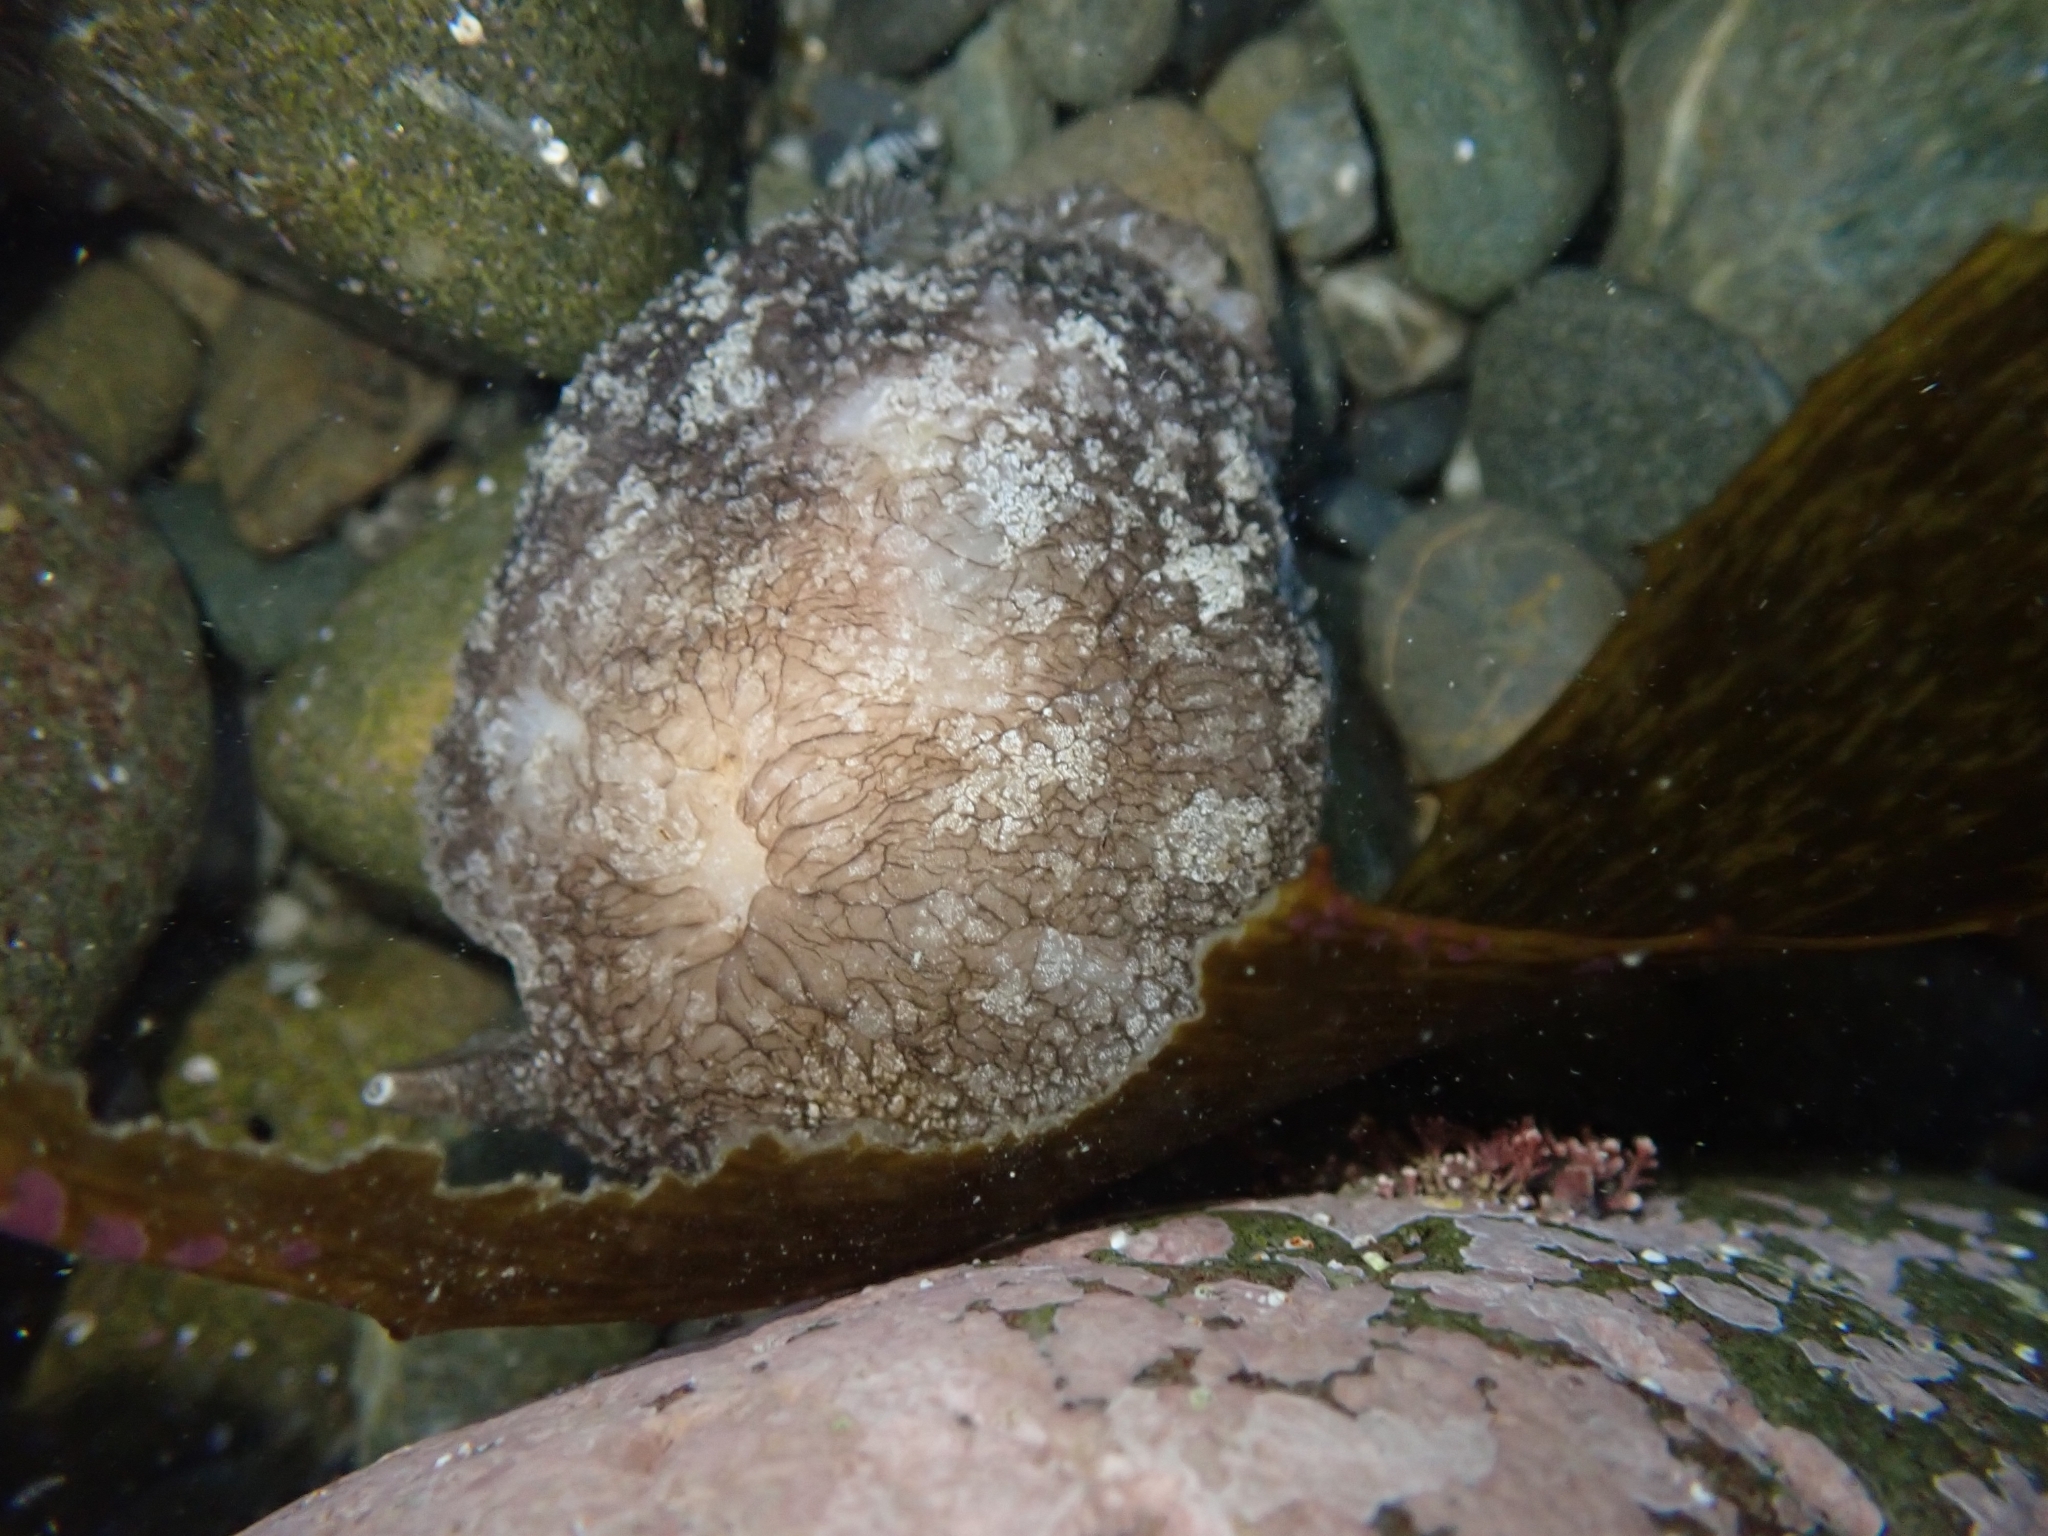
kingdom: Animalia
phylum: Mollusca
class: Gastropoda
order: Pleurobranchida
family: Pleurobranchaeidae
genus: Pleurobranchaea
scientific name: Pleurobranchaea maculata
